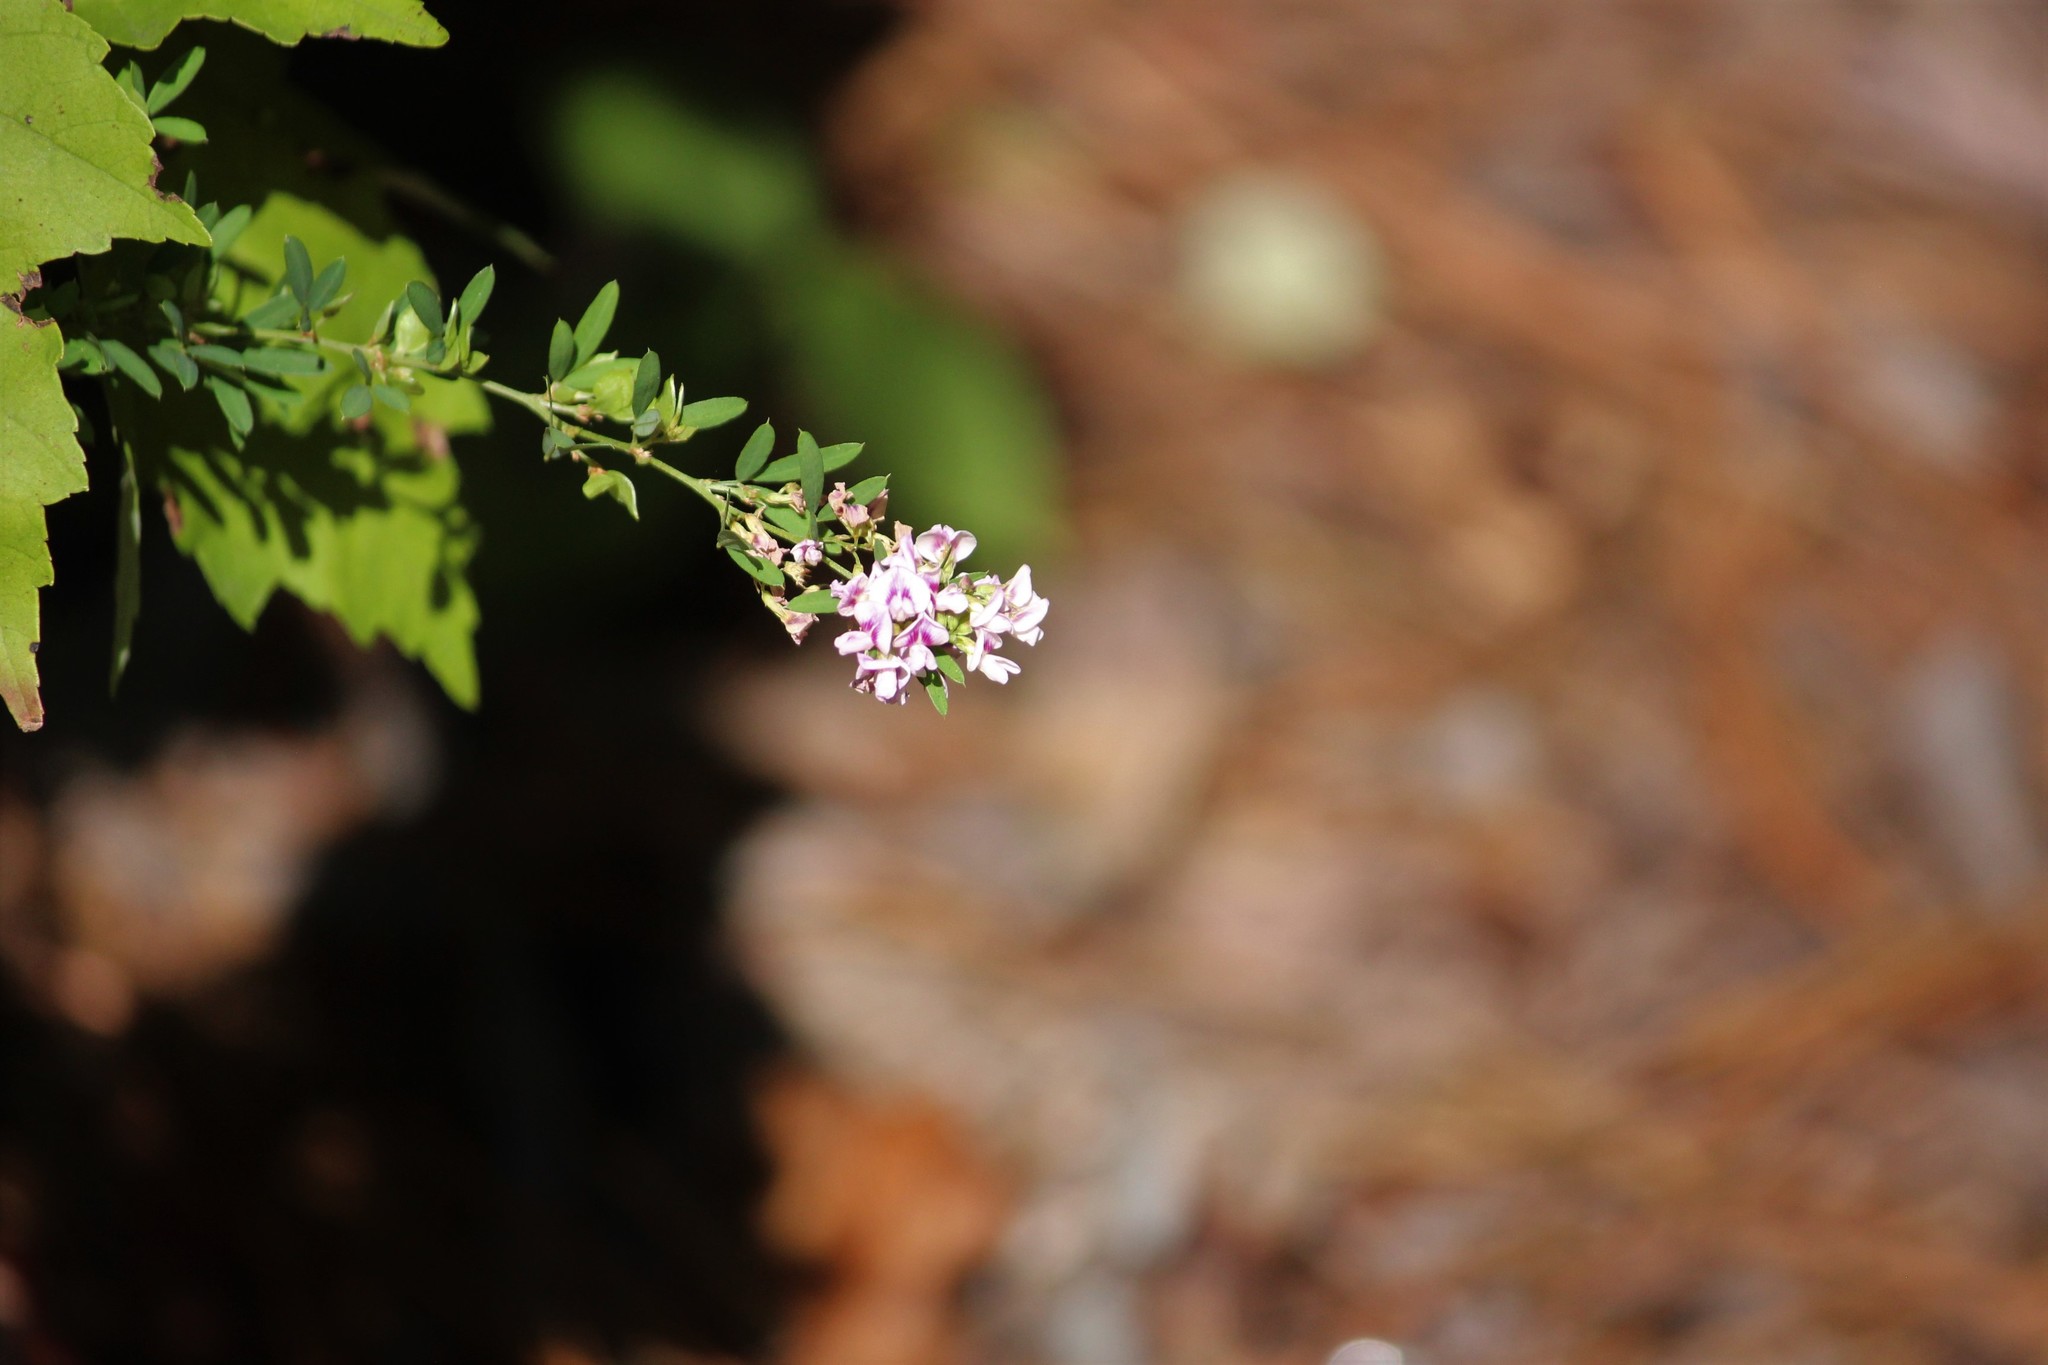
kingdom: Plantae
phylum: Tracheophyta
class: Magnoliopsida
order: Fabales
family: Fabaceae
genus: Lespedeza
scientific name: Lespedeza virginica
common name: Slender bush-clover
